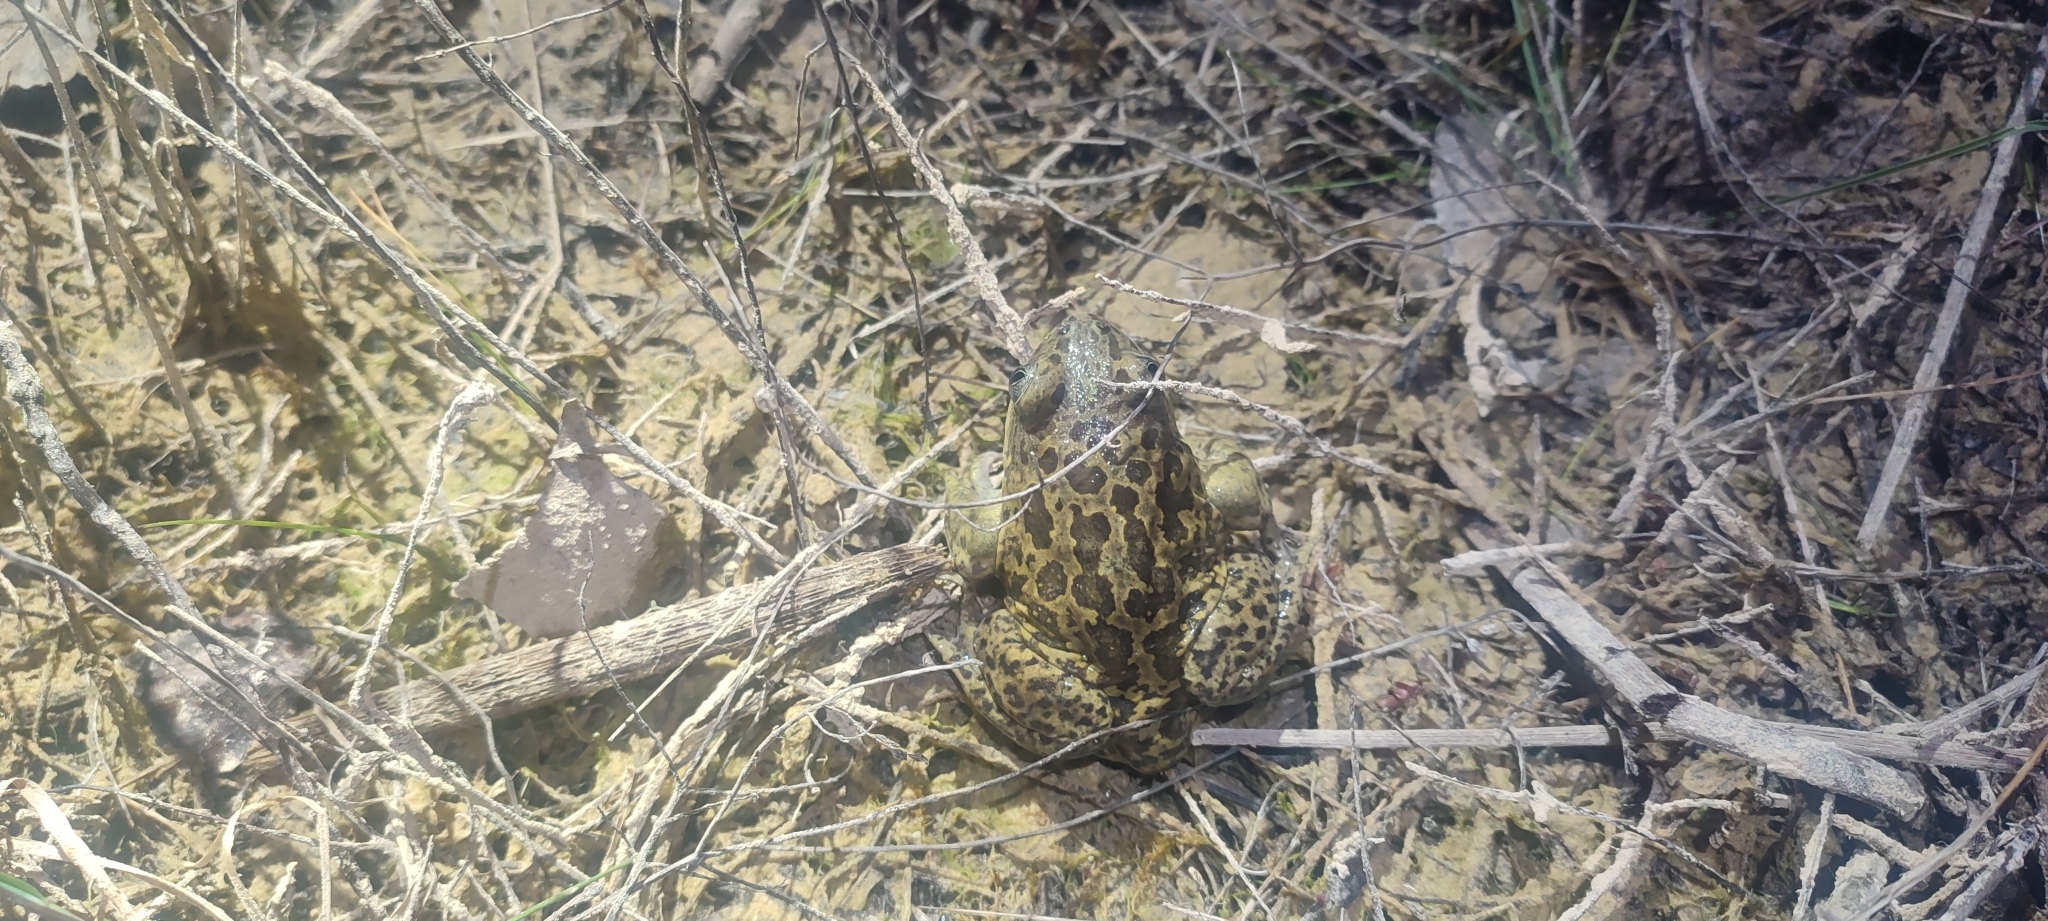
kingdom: Animalia
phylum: Chordata
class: Amphibia
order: Anura
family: Pelobatidae
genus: Pelobates
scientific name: Pelobates cultripes
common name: Western spadefoot
